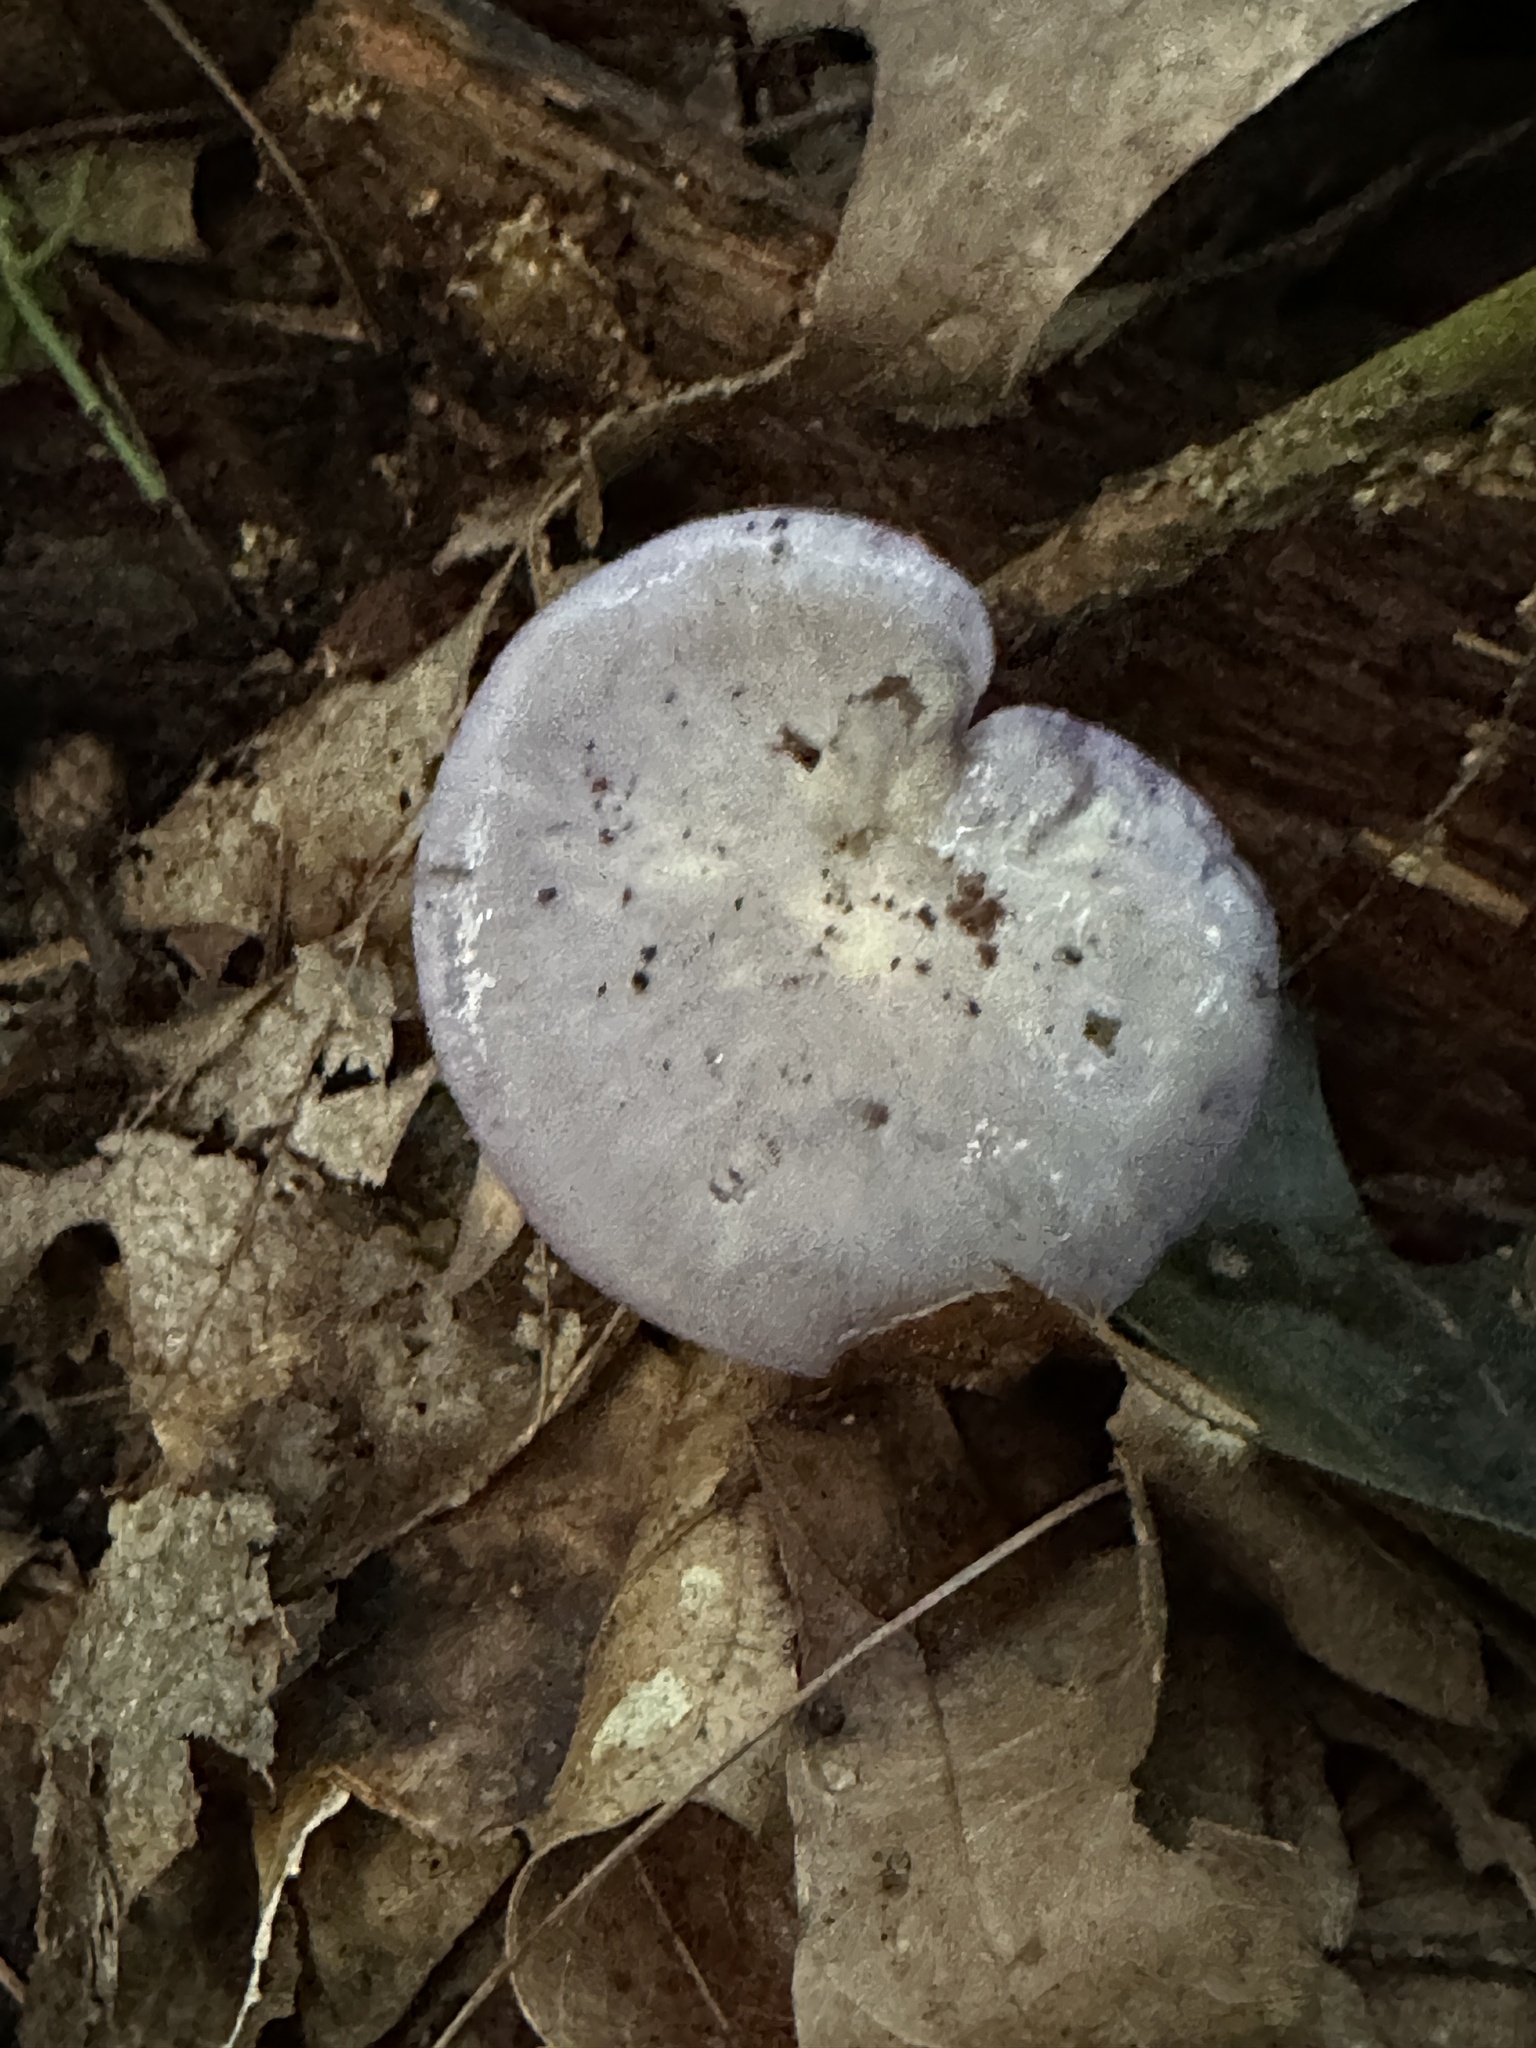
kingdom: Fungi
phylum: Basidiomycota
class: Agaricomycetes
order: Agaricales
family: Cortinariaceae
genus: Cortinarius
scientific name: Cortinarius iodes
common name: Viscid violet cort
